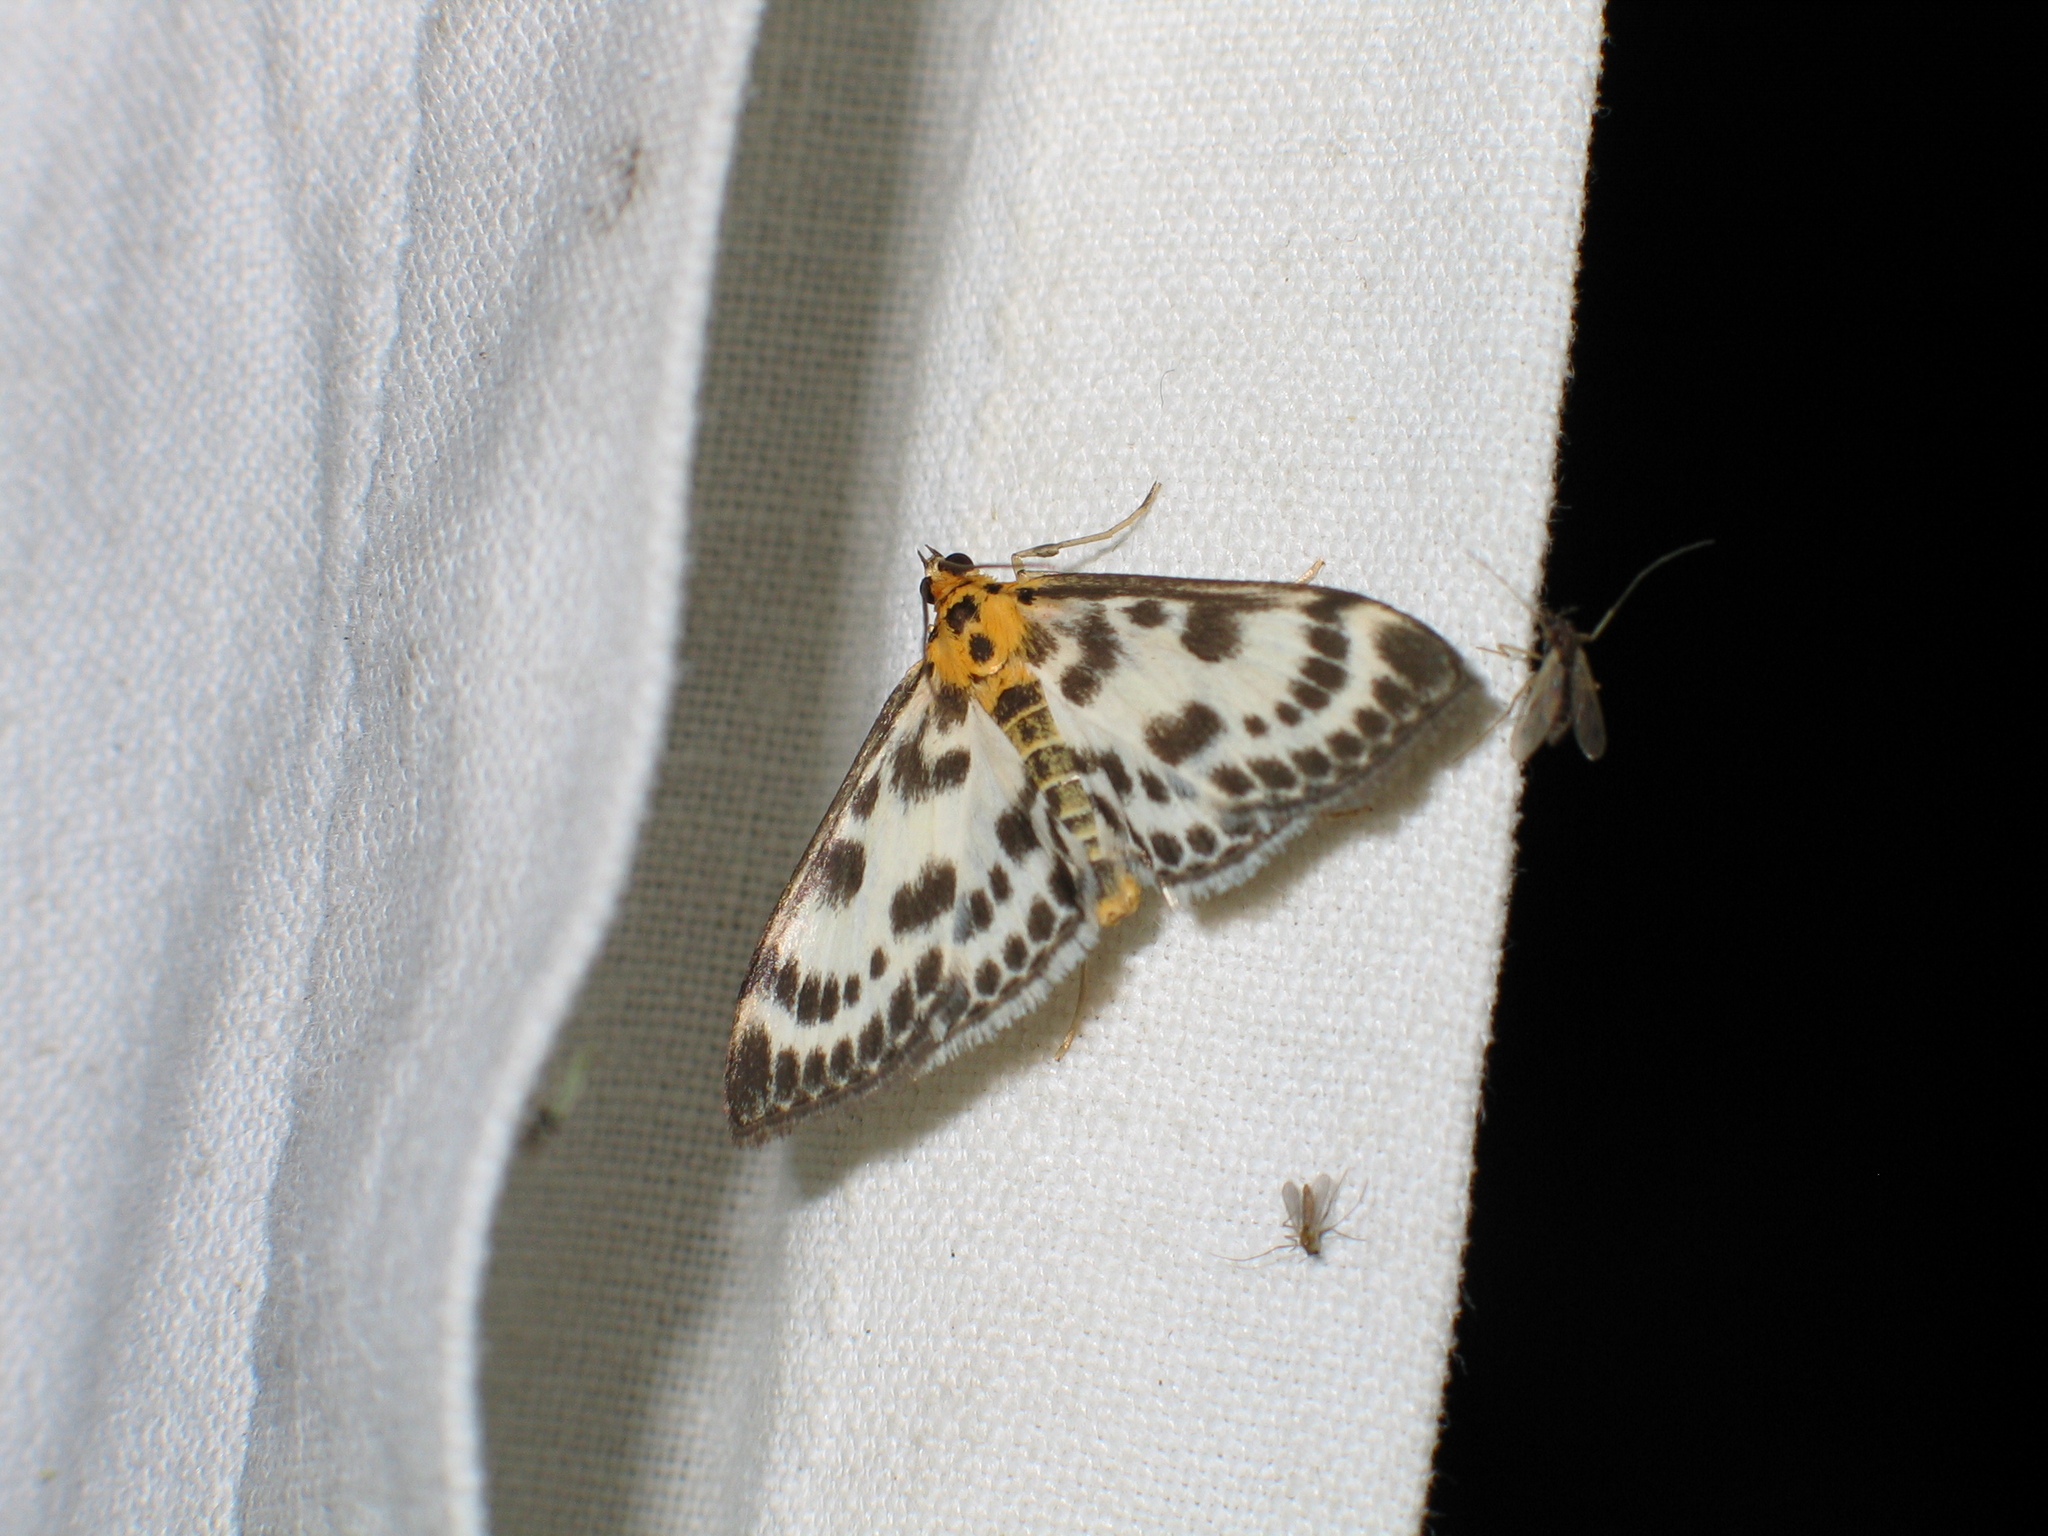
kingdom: Animalia
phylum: Arthropoda
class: Insecta
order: Lepidoptera
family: Crambidae
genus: Anania
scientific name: Anania hortulata
